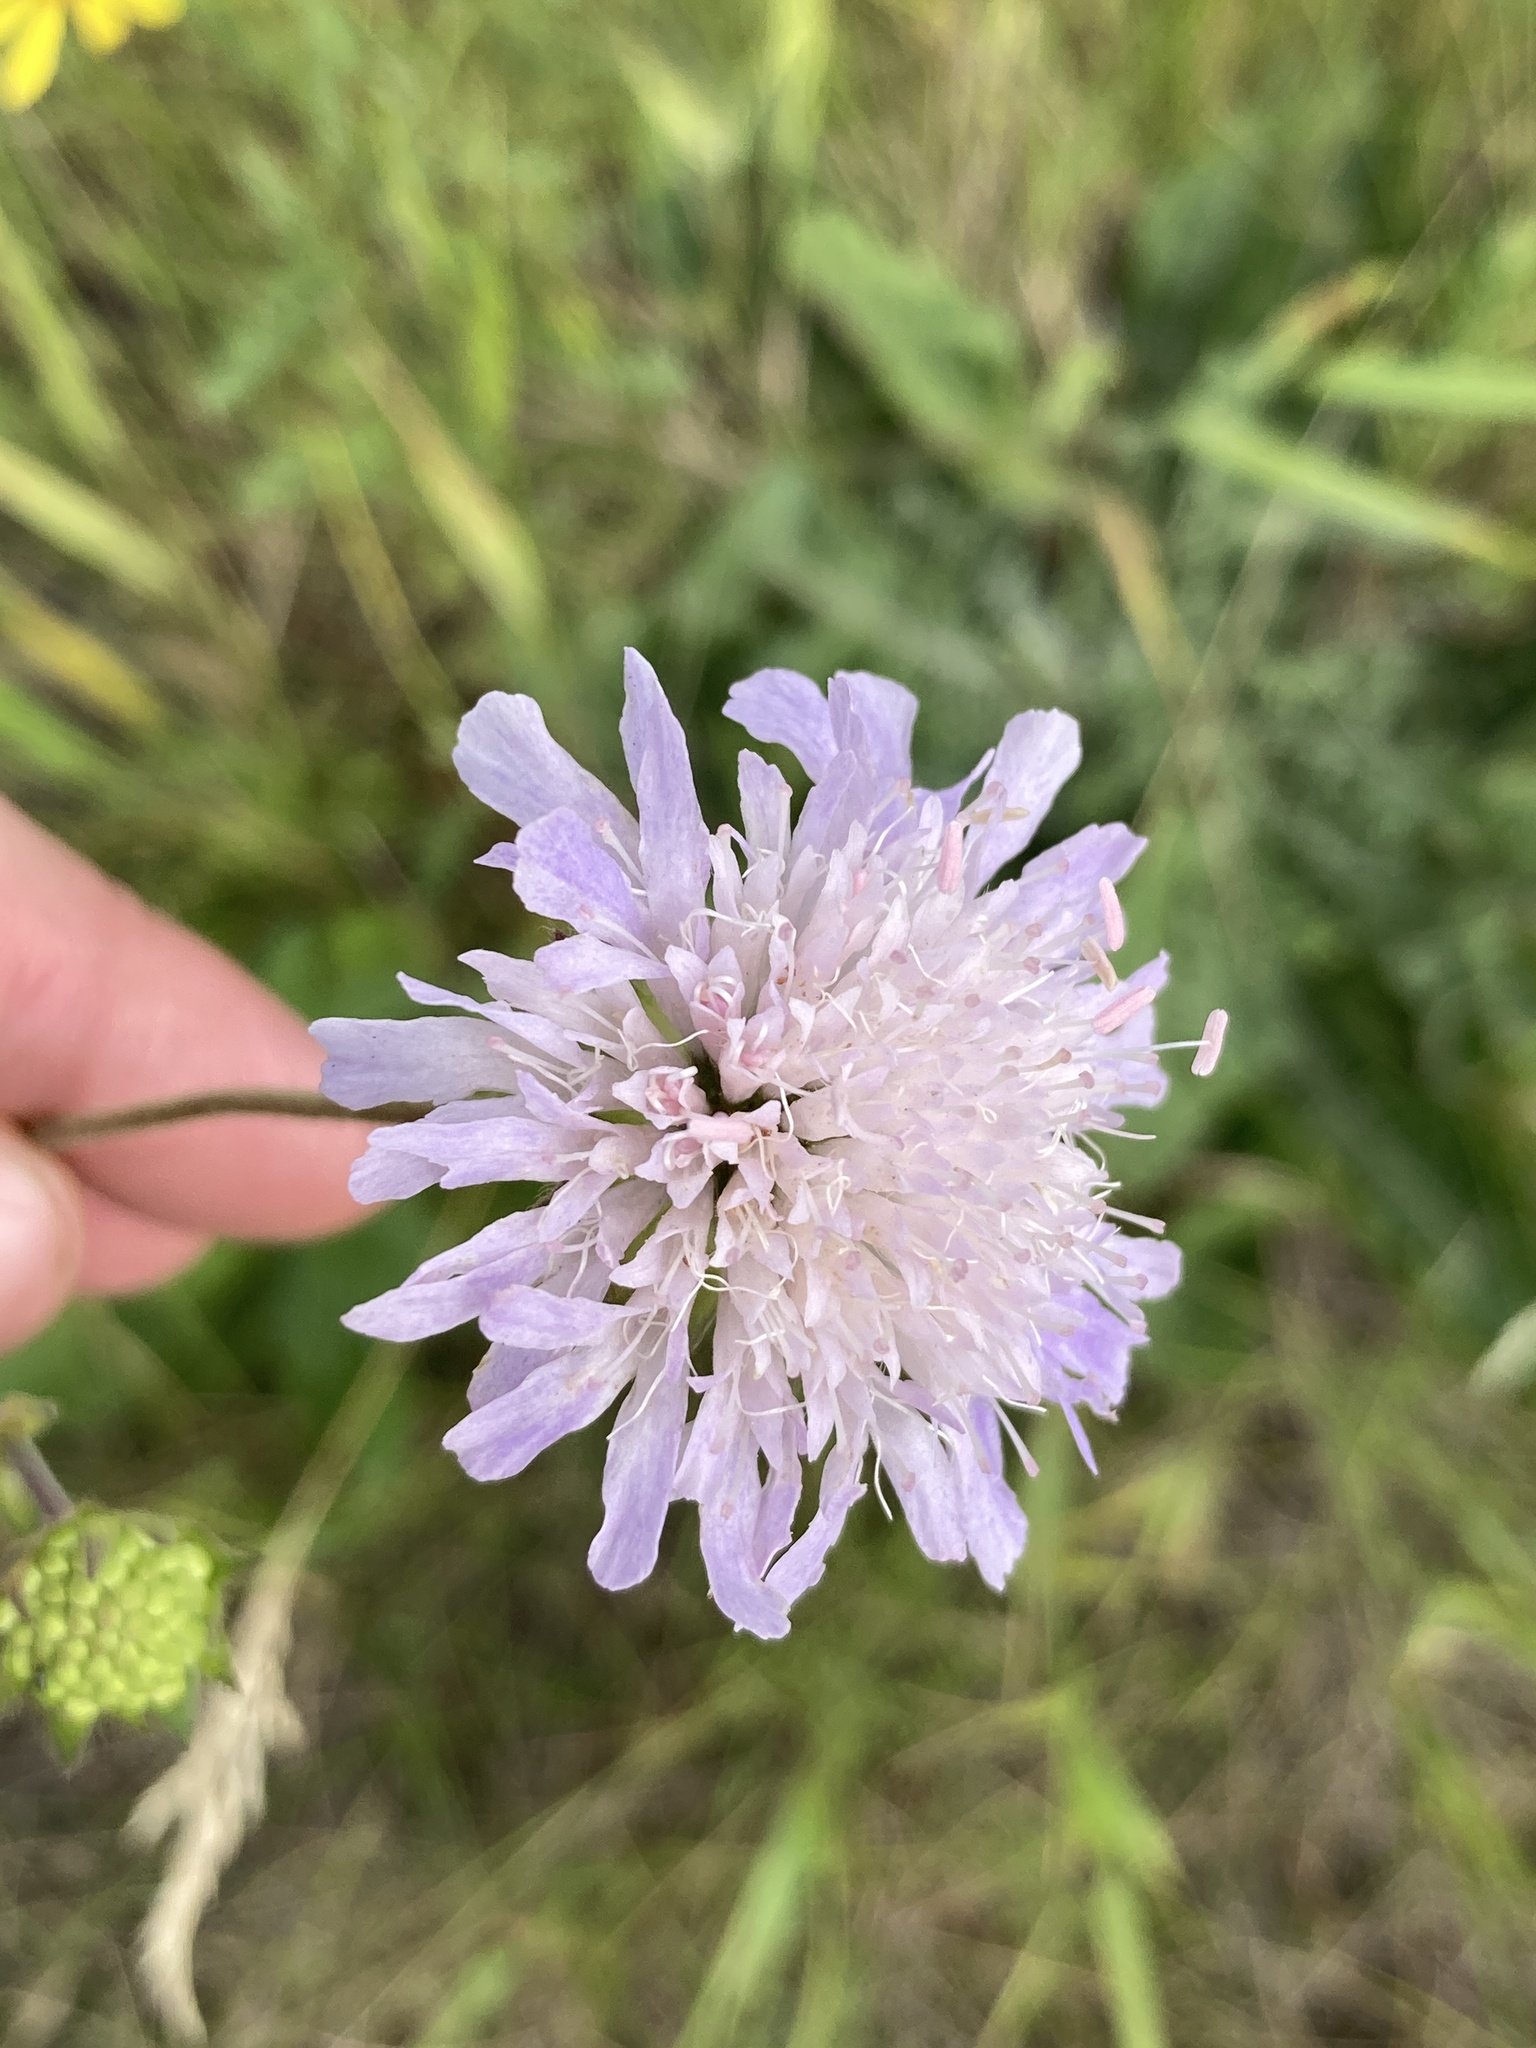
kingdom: Plantae
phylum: Tracheophyta
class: Magnoliopsida
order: Dipsacales
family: Caprifoliaceae
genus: Knautia
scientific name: Knautia arvensis
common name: Field scabiosa
